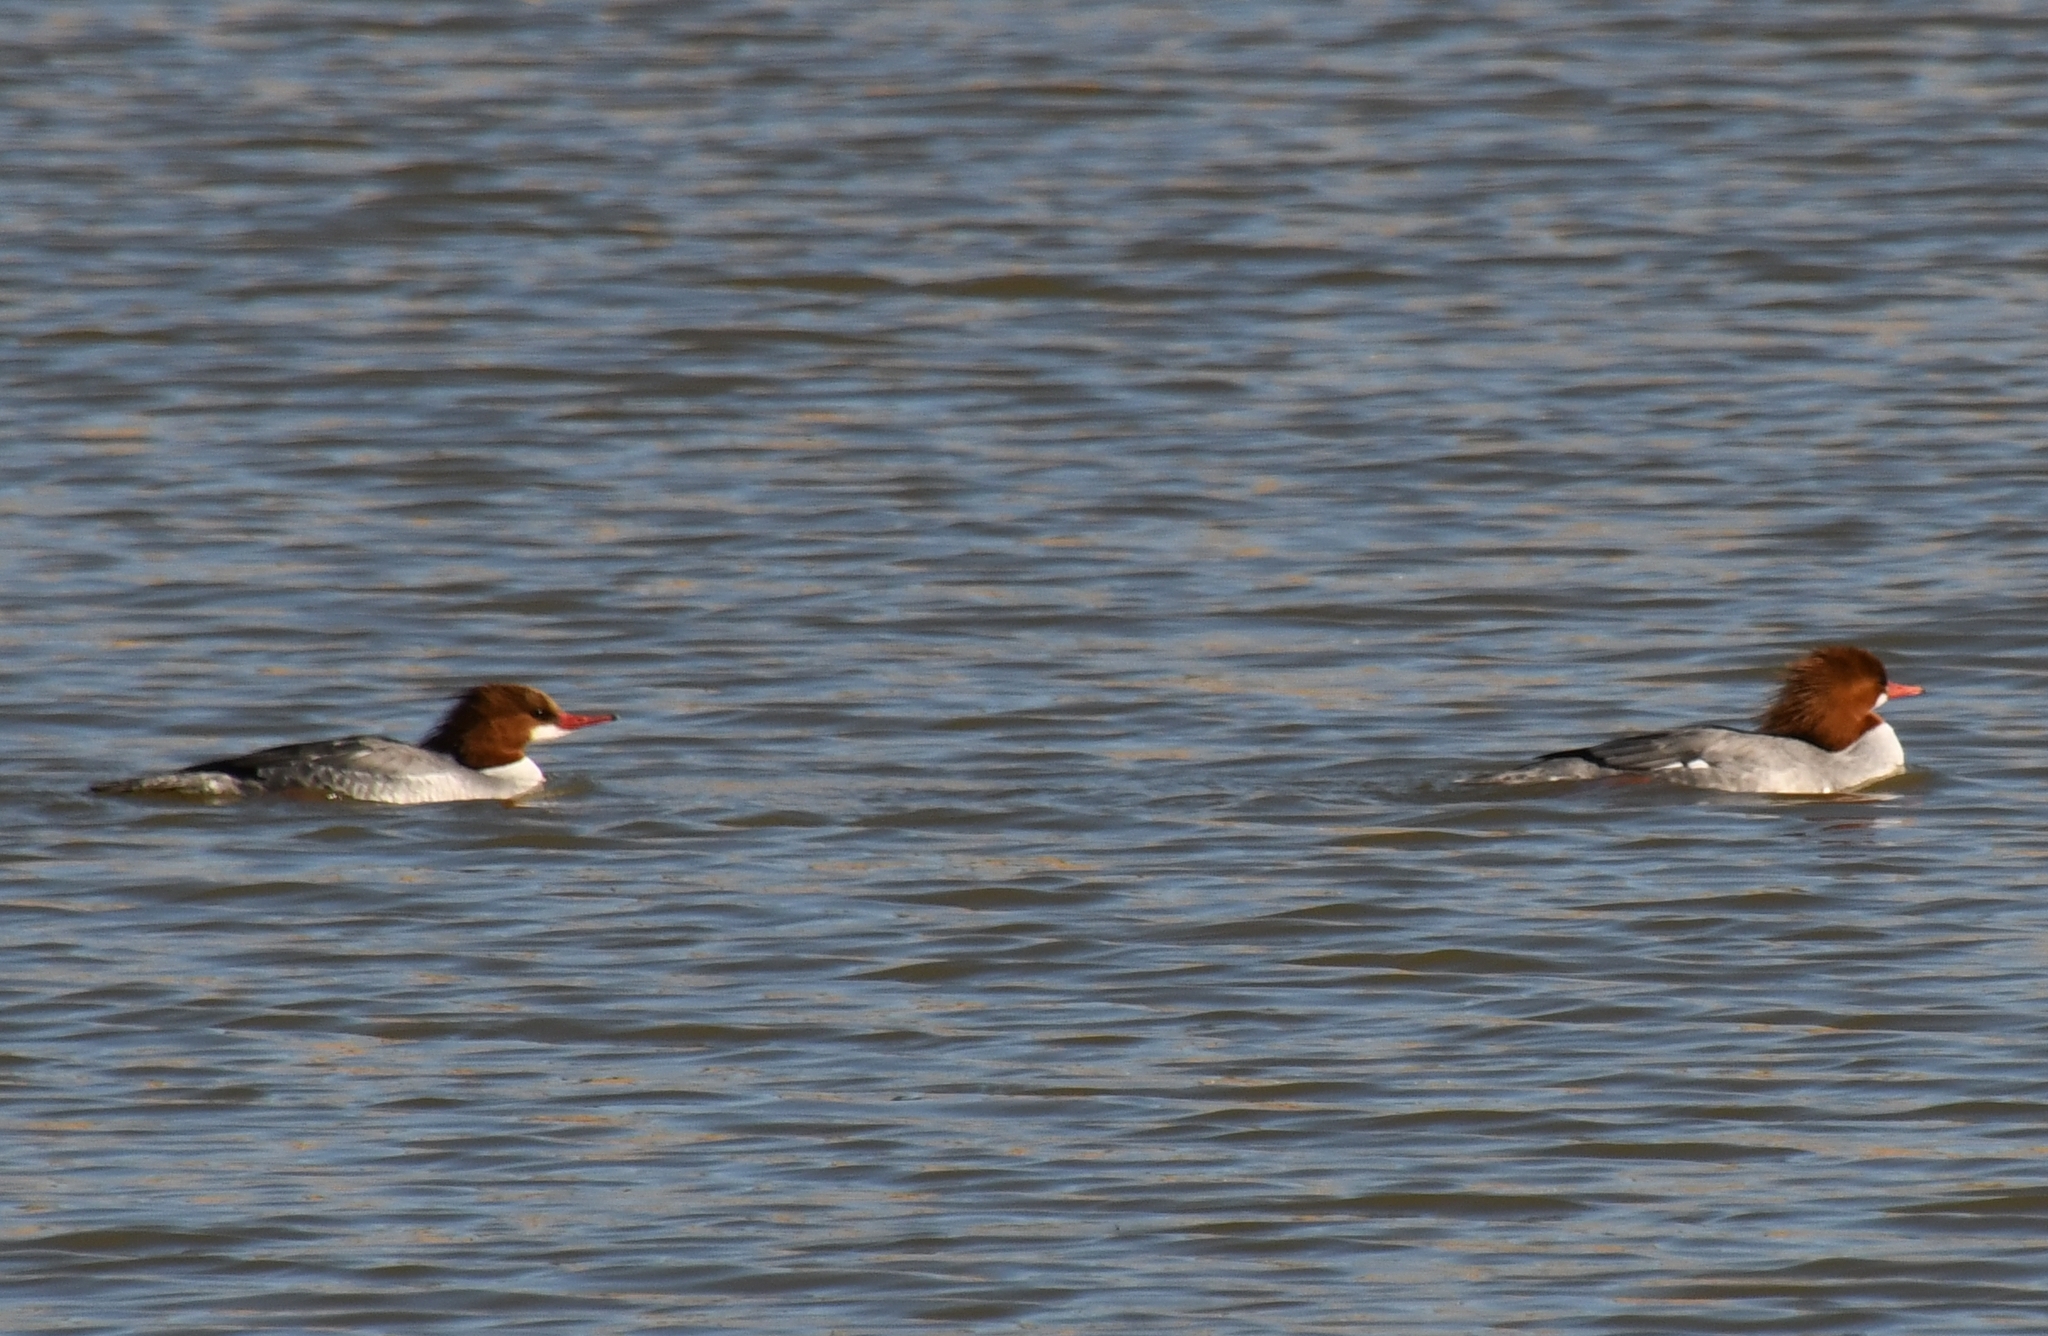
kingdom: Animalia
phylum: Chordata
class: Aves
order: Anseriformes
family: Anatidae
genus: Mergus
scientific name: Mergus merganser
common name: Common merganser
